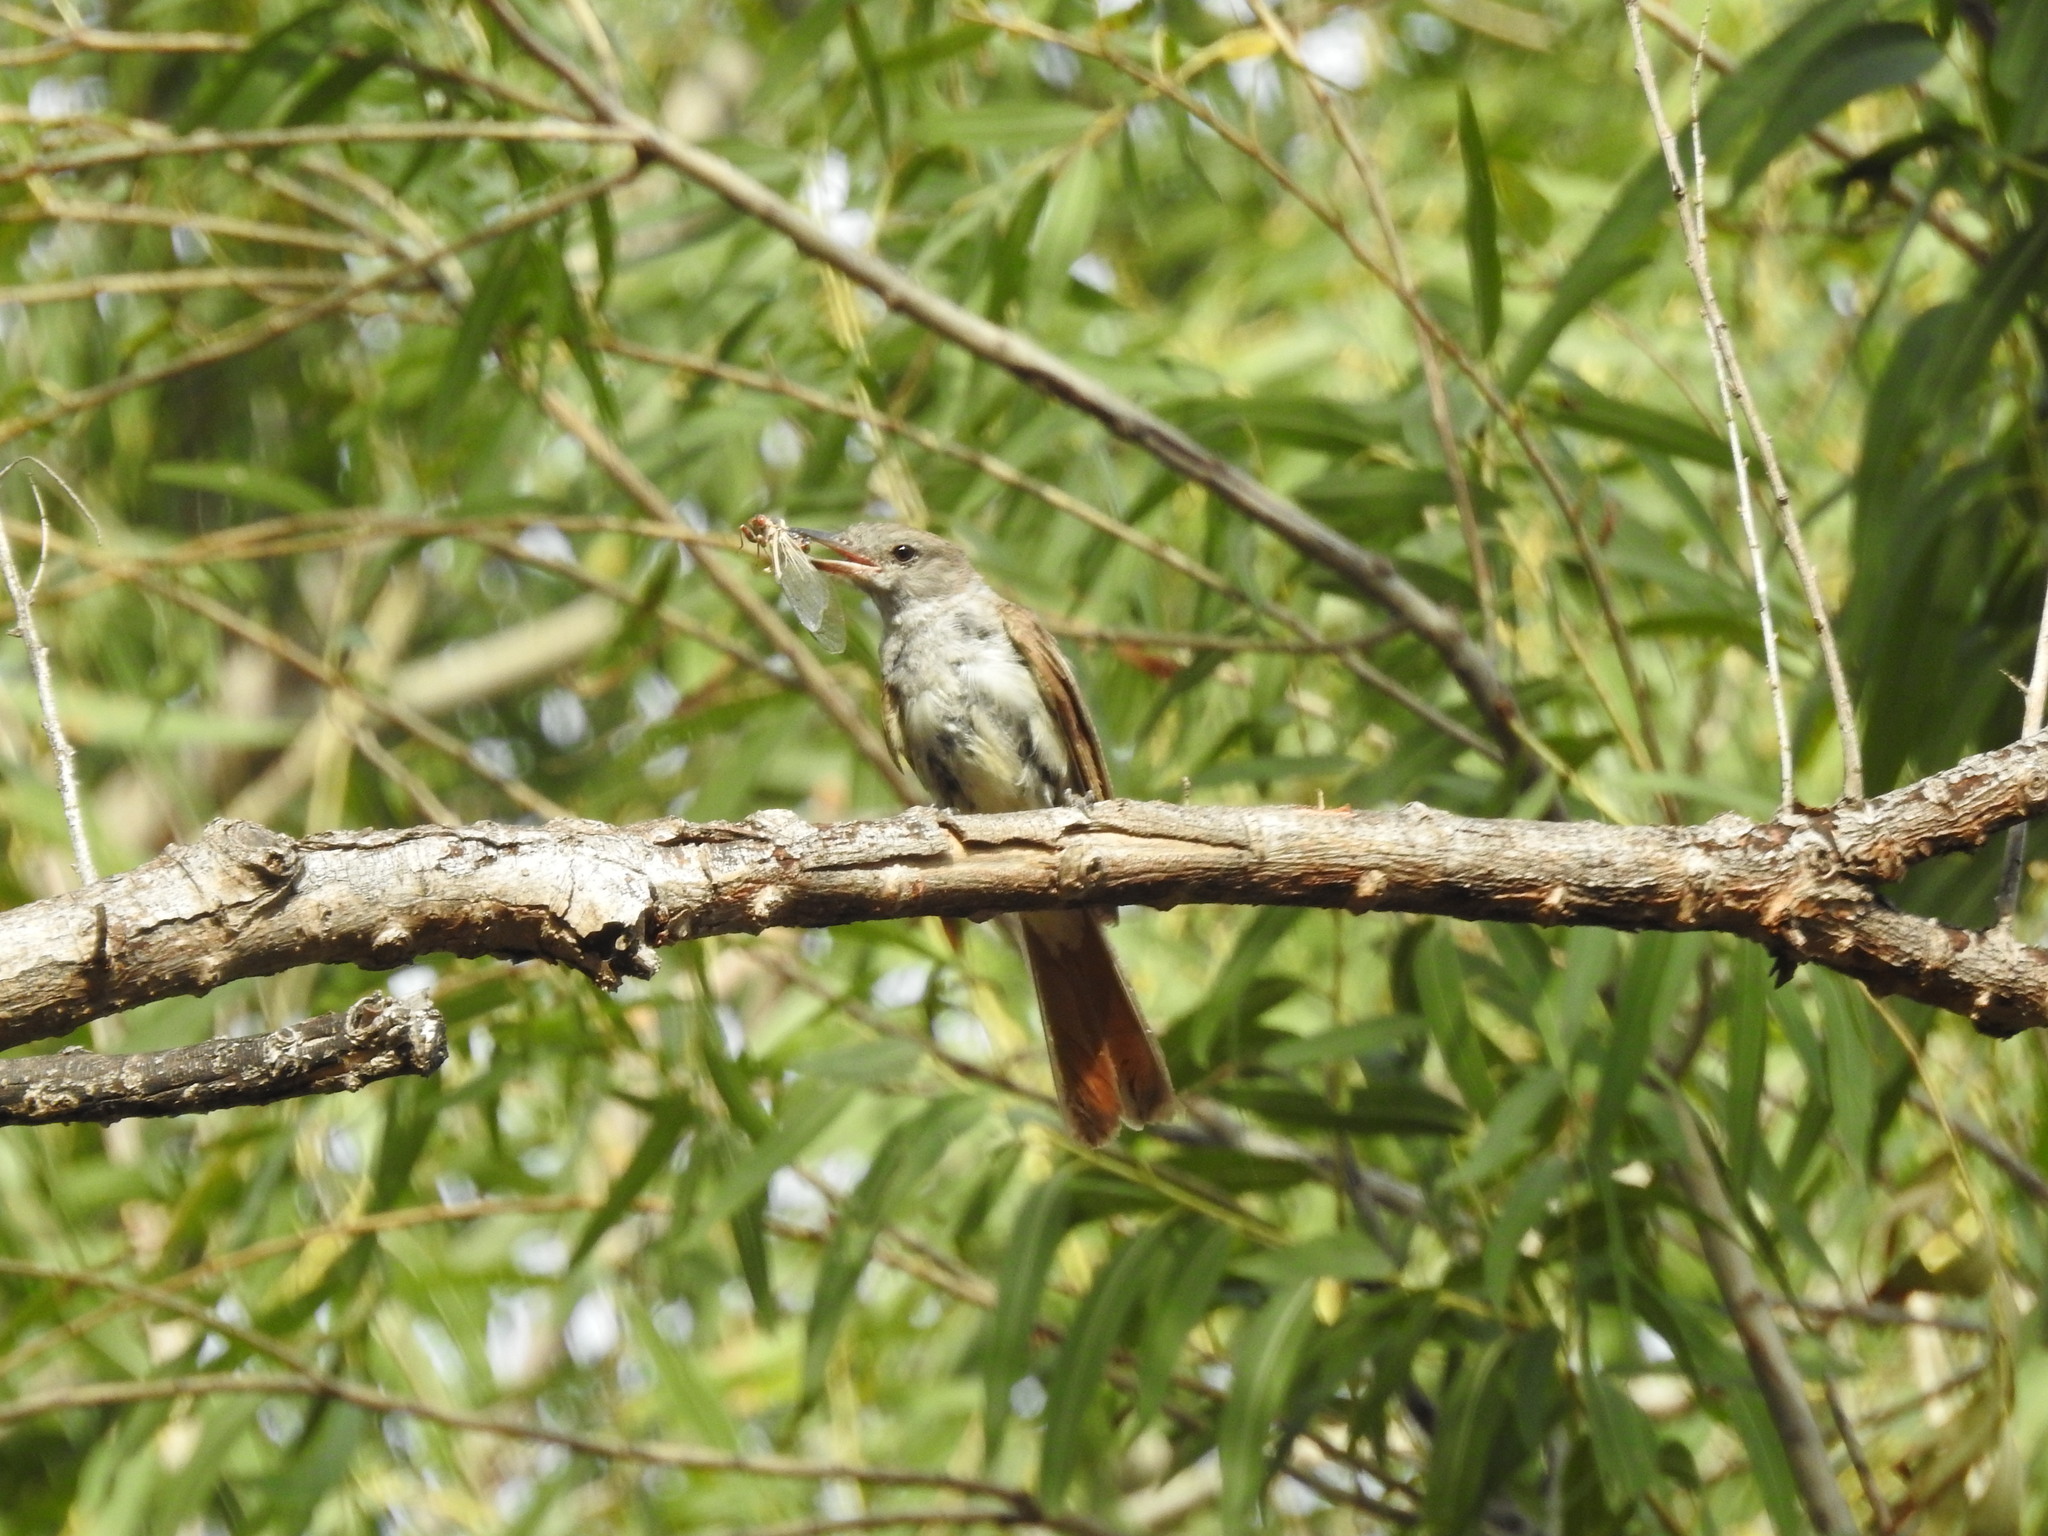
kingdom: Animalia
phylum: Chordata
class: Aves
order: Passeriformes
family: Tyrannidae
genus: Myiarchus
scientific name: Myiarchus cinerascens
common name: Ash-throated flycatcher
